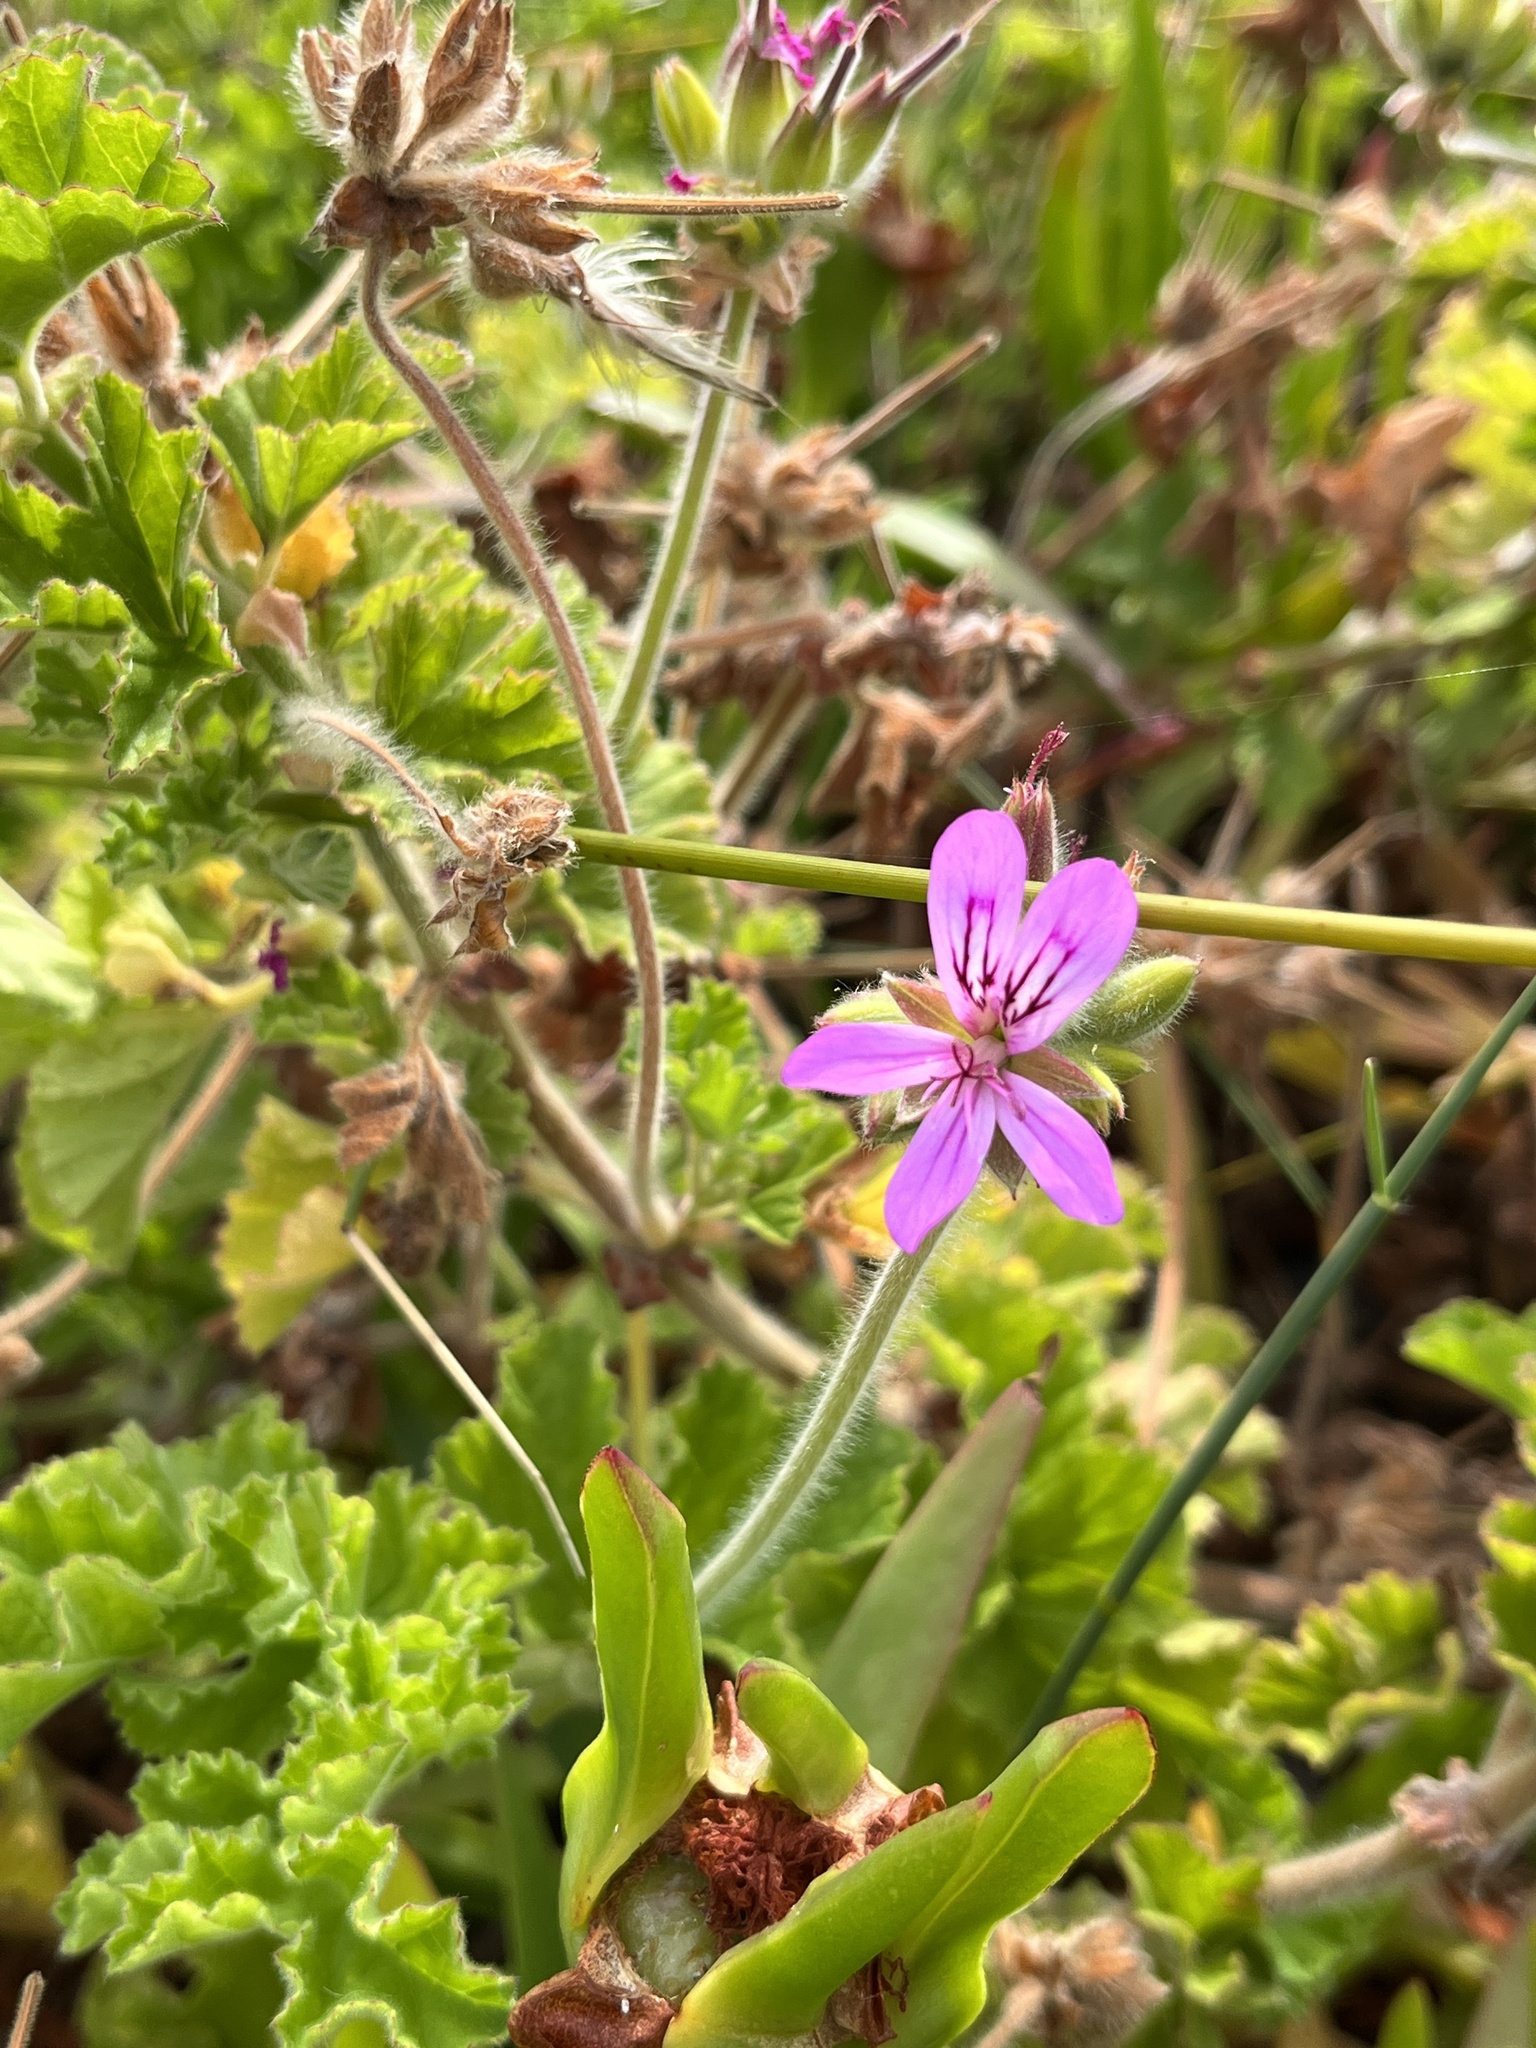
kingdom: Plantae
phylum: Tracheophyta
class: Magnoliopsida
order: Geraniales
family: Geraniaceae
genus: Pelargonium
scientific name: Pelargonium capitatum
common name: Rose scented geranium
